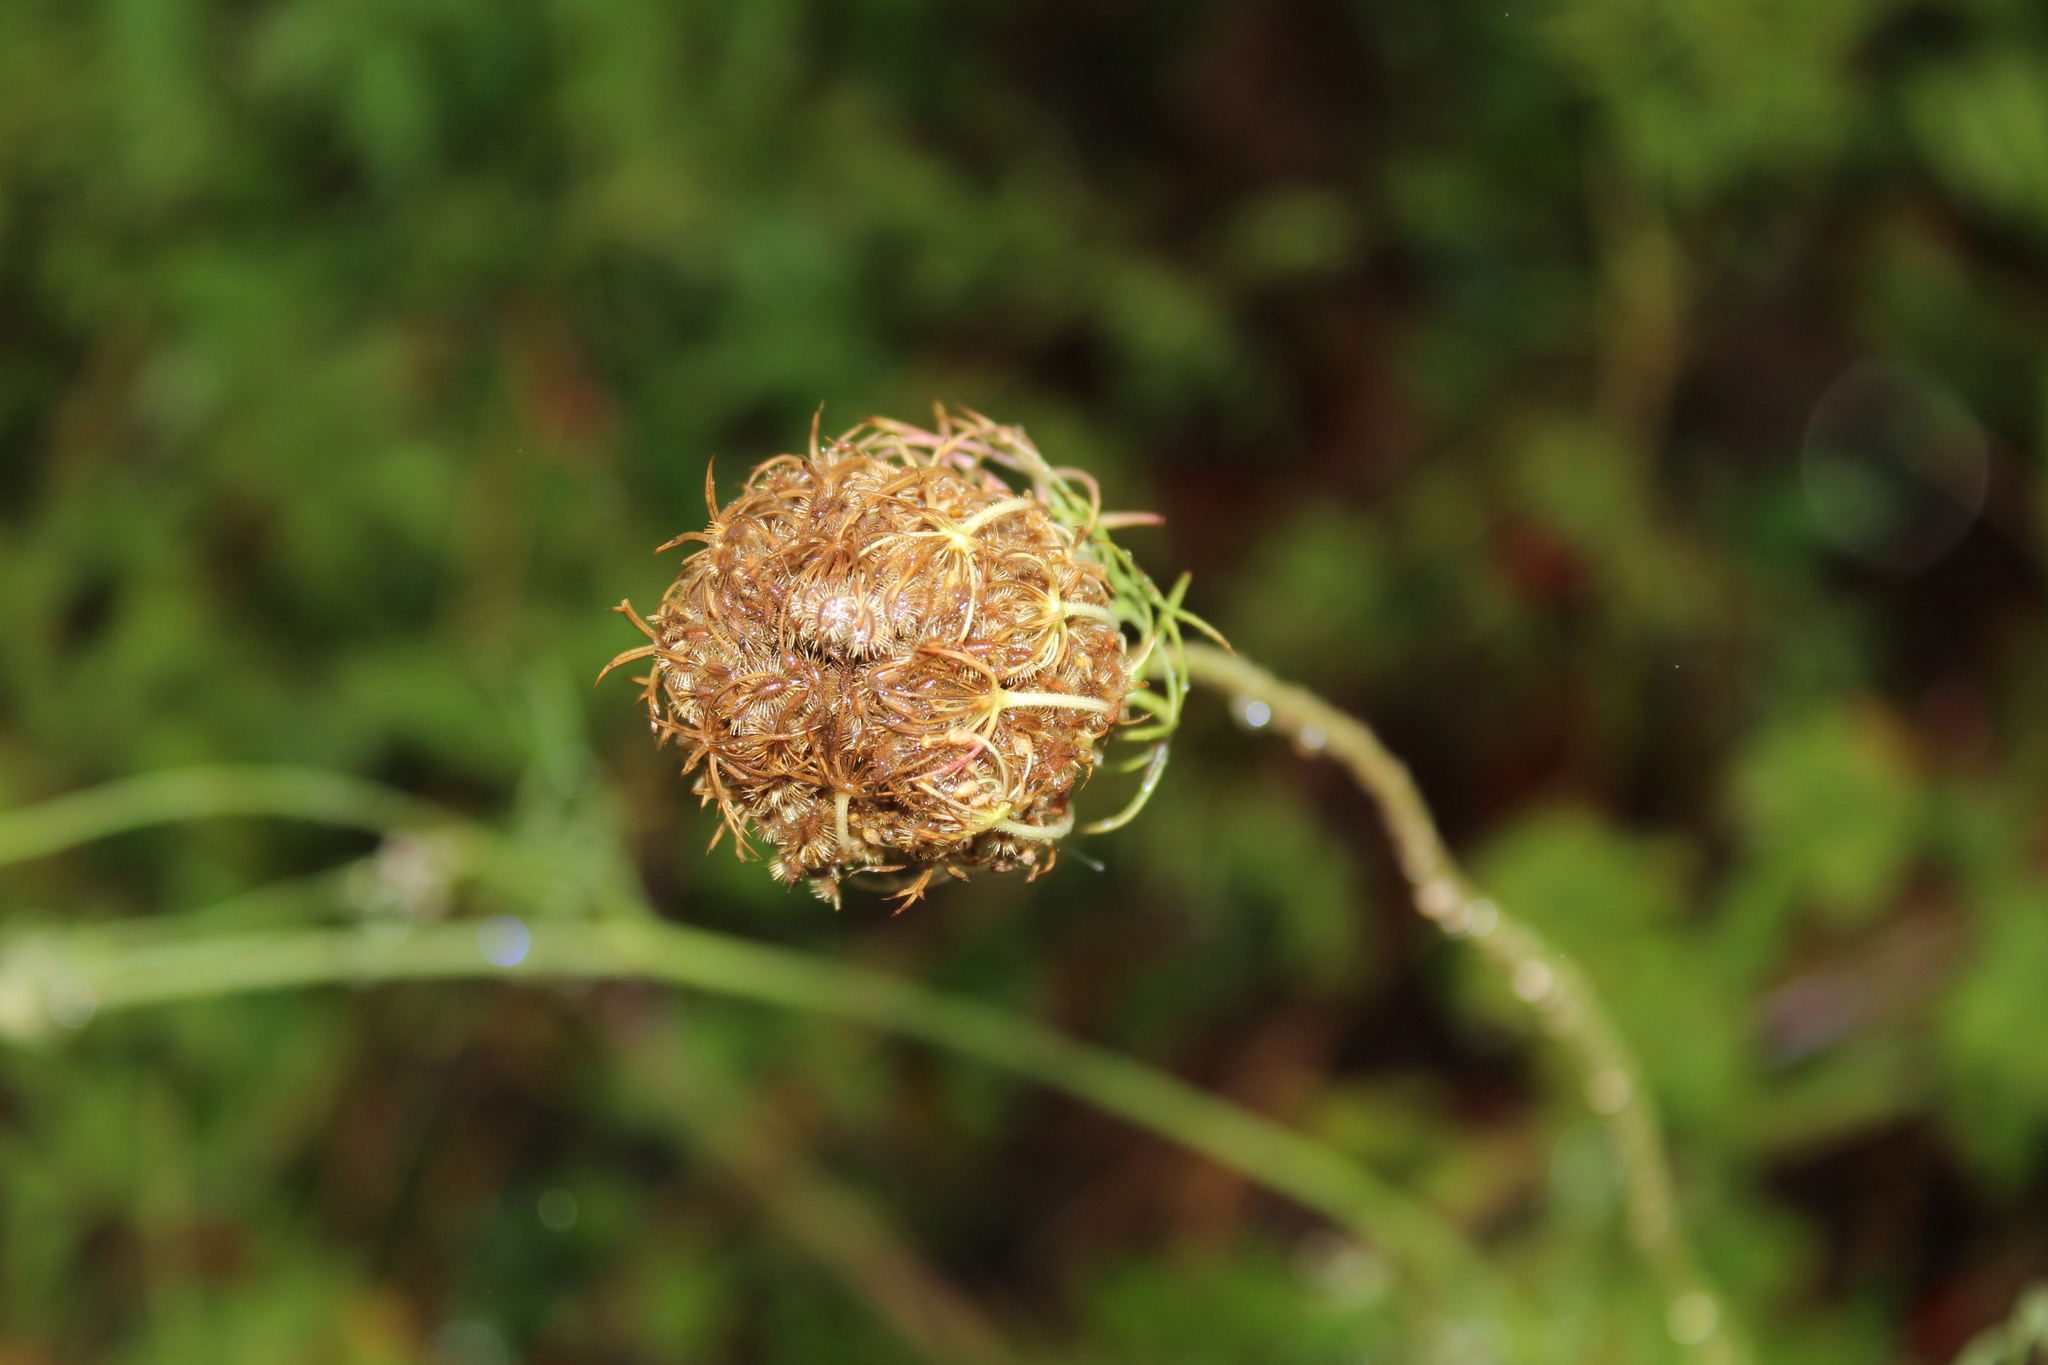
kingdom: Plantae
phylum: Tracheophyta
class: Magnoliopsida
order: Apiales
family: Apiaceae
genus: Daucus
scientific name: Daucus carota
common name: Wild carrot
